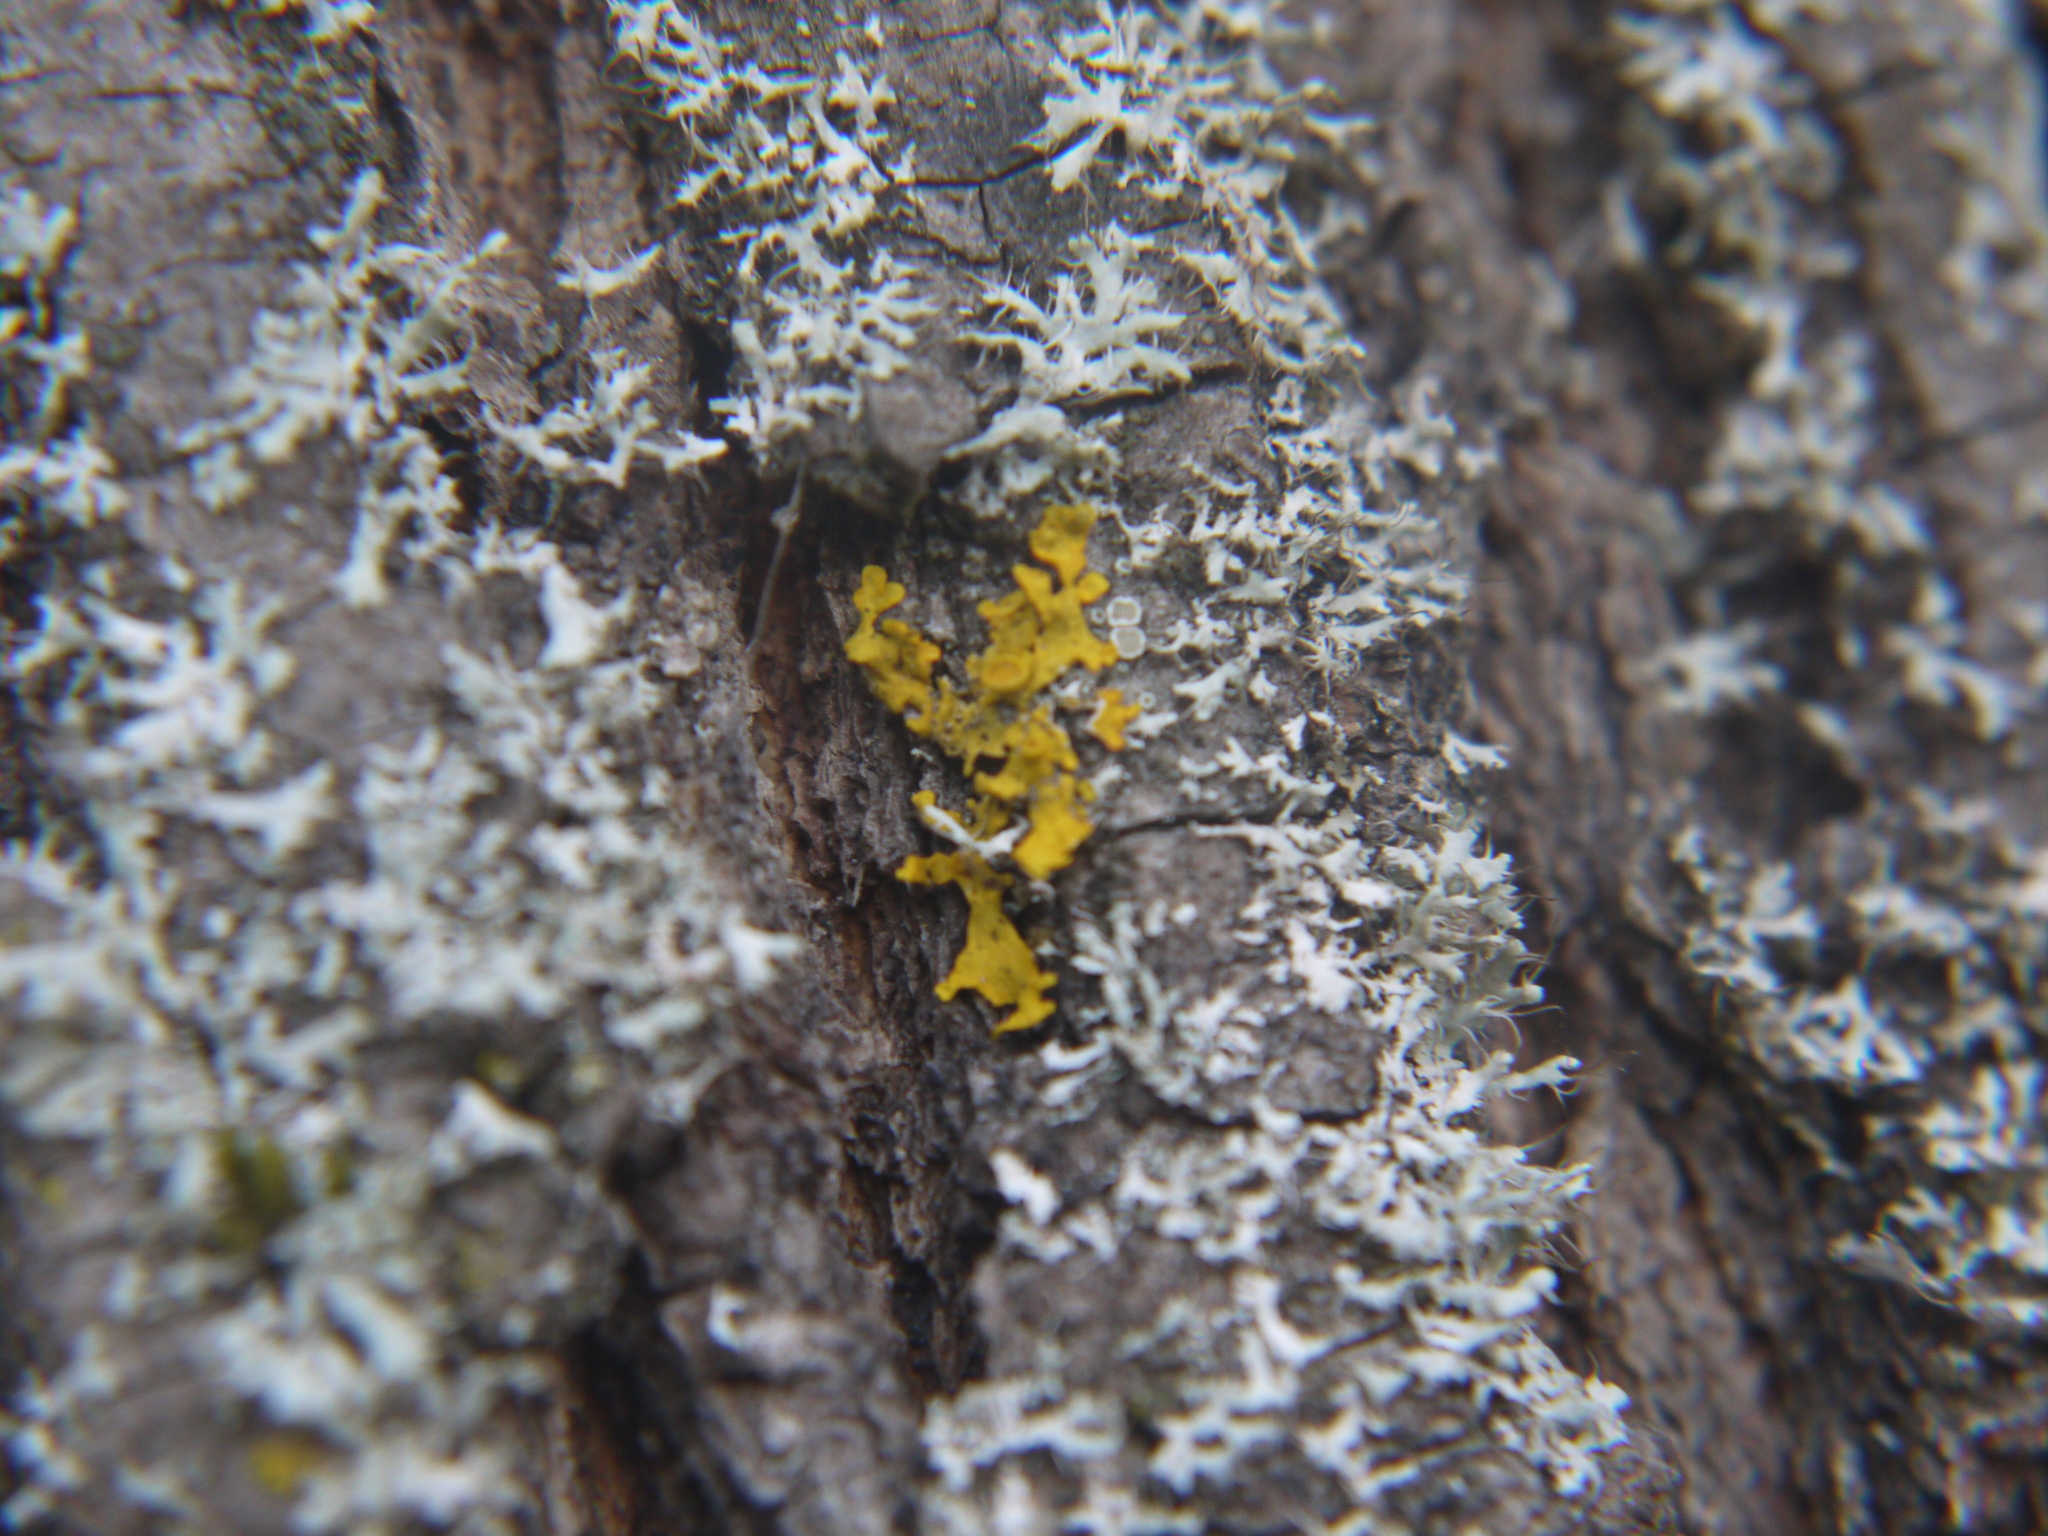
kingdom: Fungi
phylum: Ascomycota
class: Lecanoromycetes
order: Teloschistales
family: Teloschistaceae
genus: Xanthoria
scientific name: Xanthoria parietina
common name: Common orange lichen
